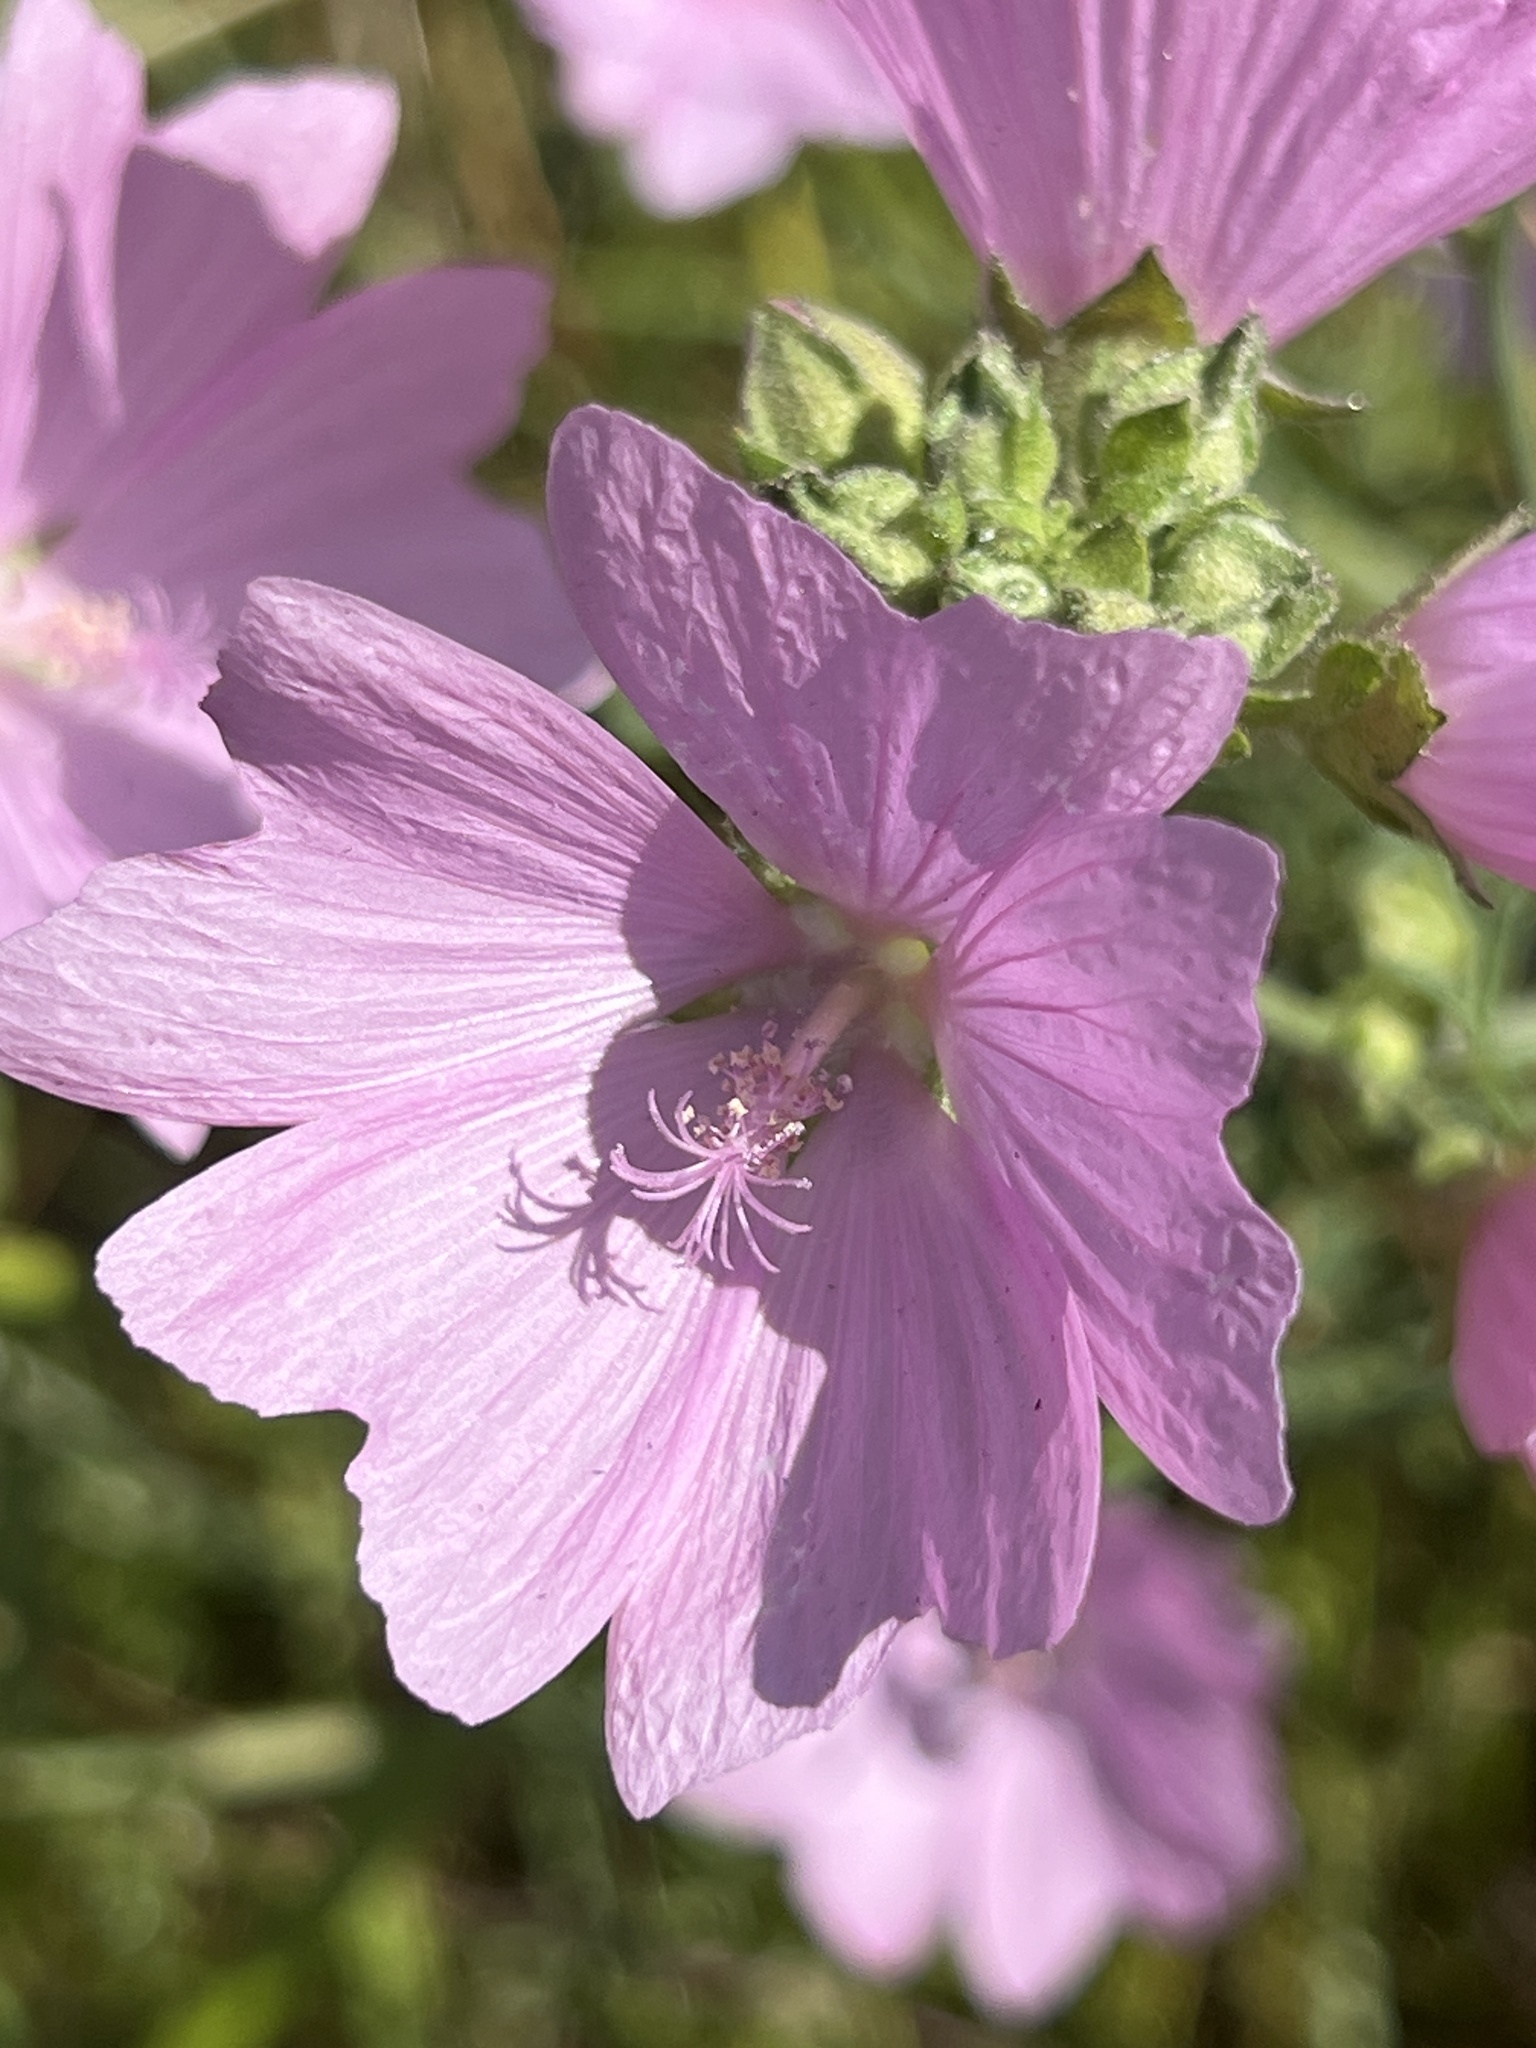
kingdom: Plantae
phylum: Tracheophyta
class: Magnoliopsida
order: Malvales
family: Malvaceae
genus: Malva
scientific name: Malva alcea
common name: Greater musk-mallow
